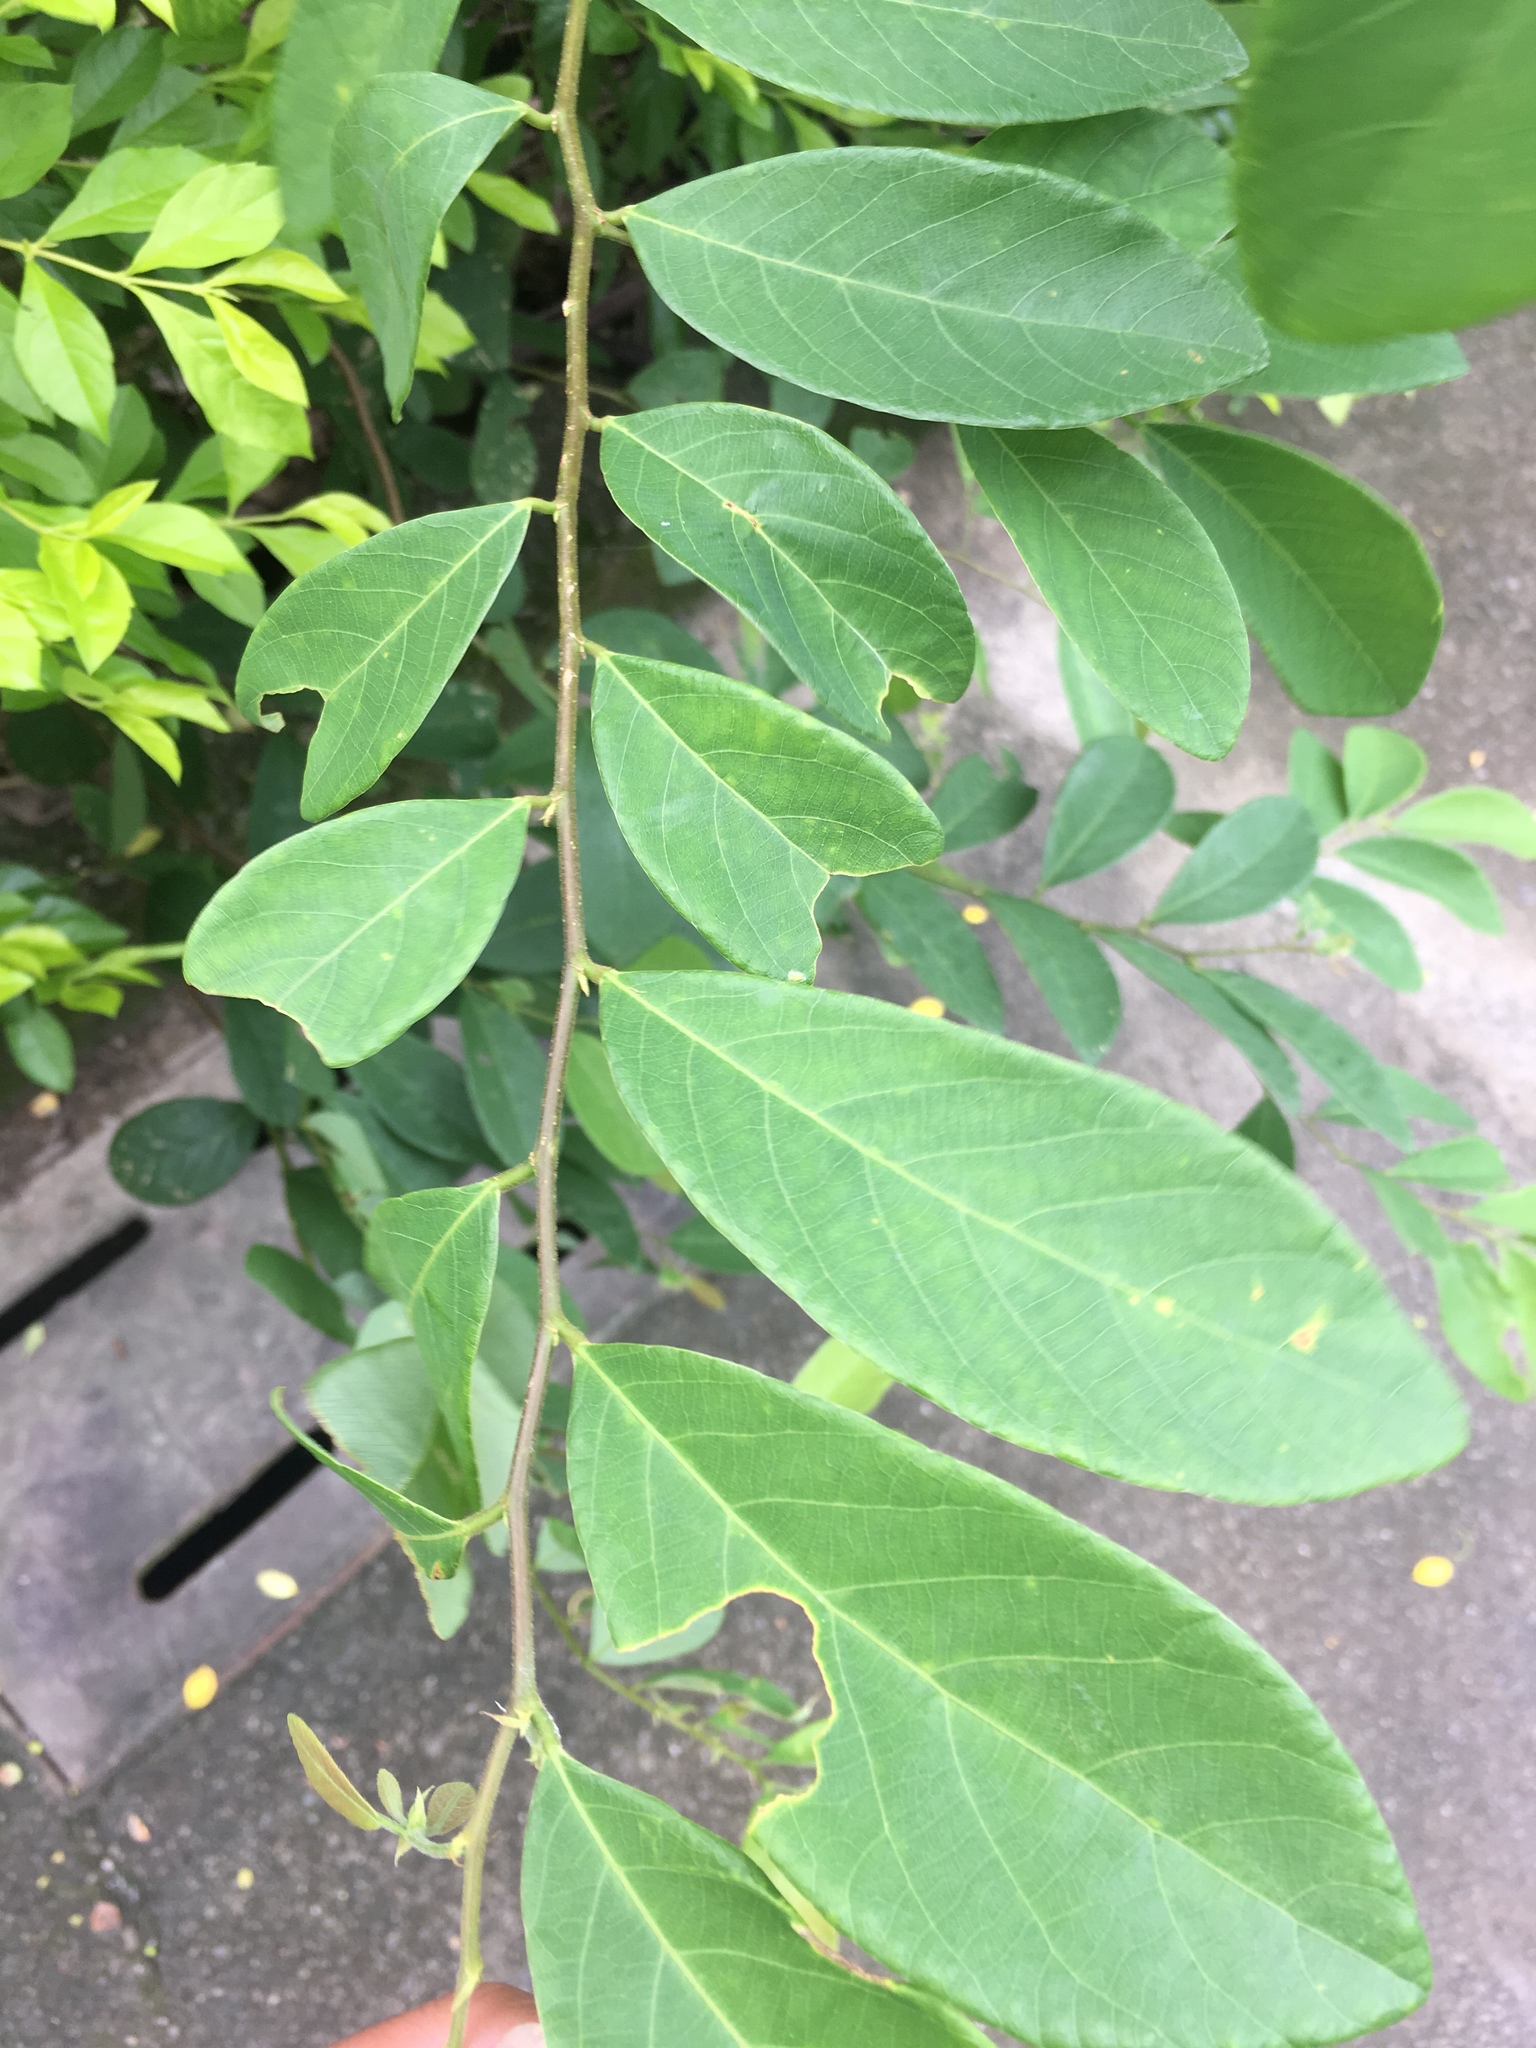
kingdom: Plantae
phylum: Tracheophyta
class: Magnoliopsida
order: Malpighiales
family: Phyllanthaceae
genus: Bridelia
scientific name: Bridelia tomentosa
